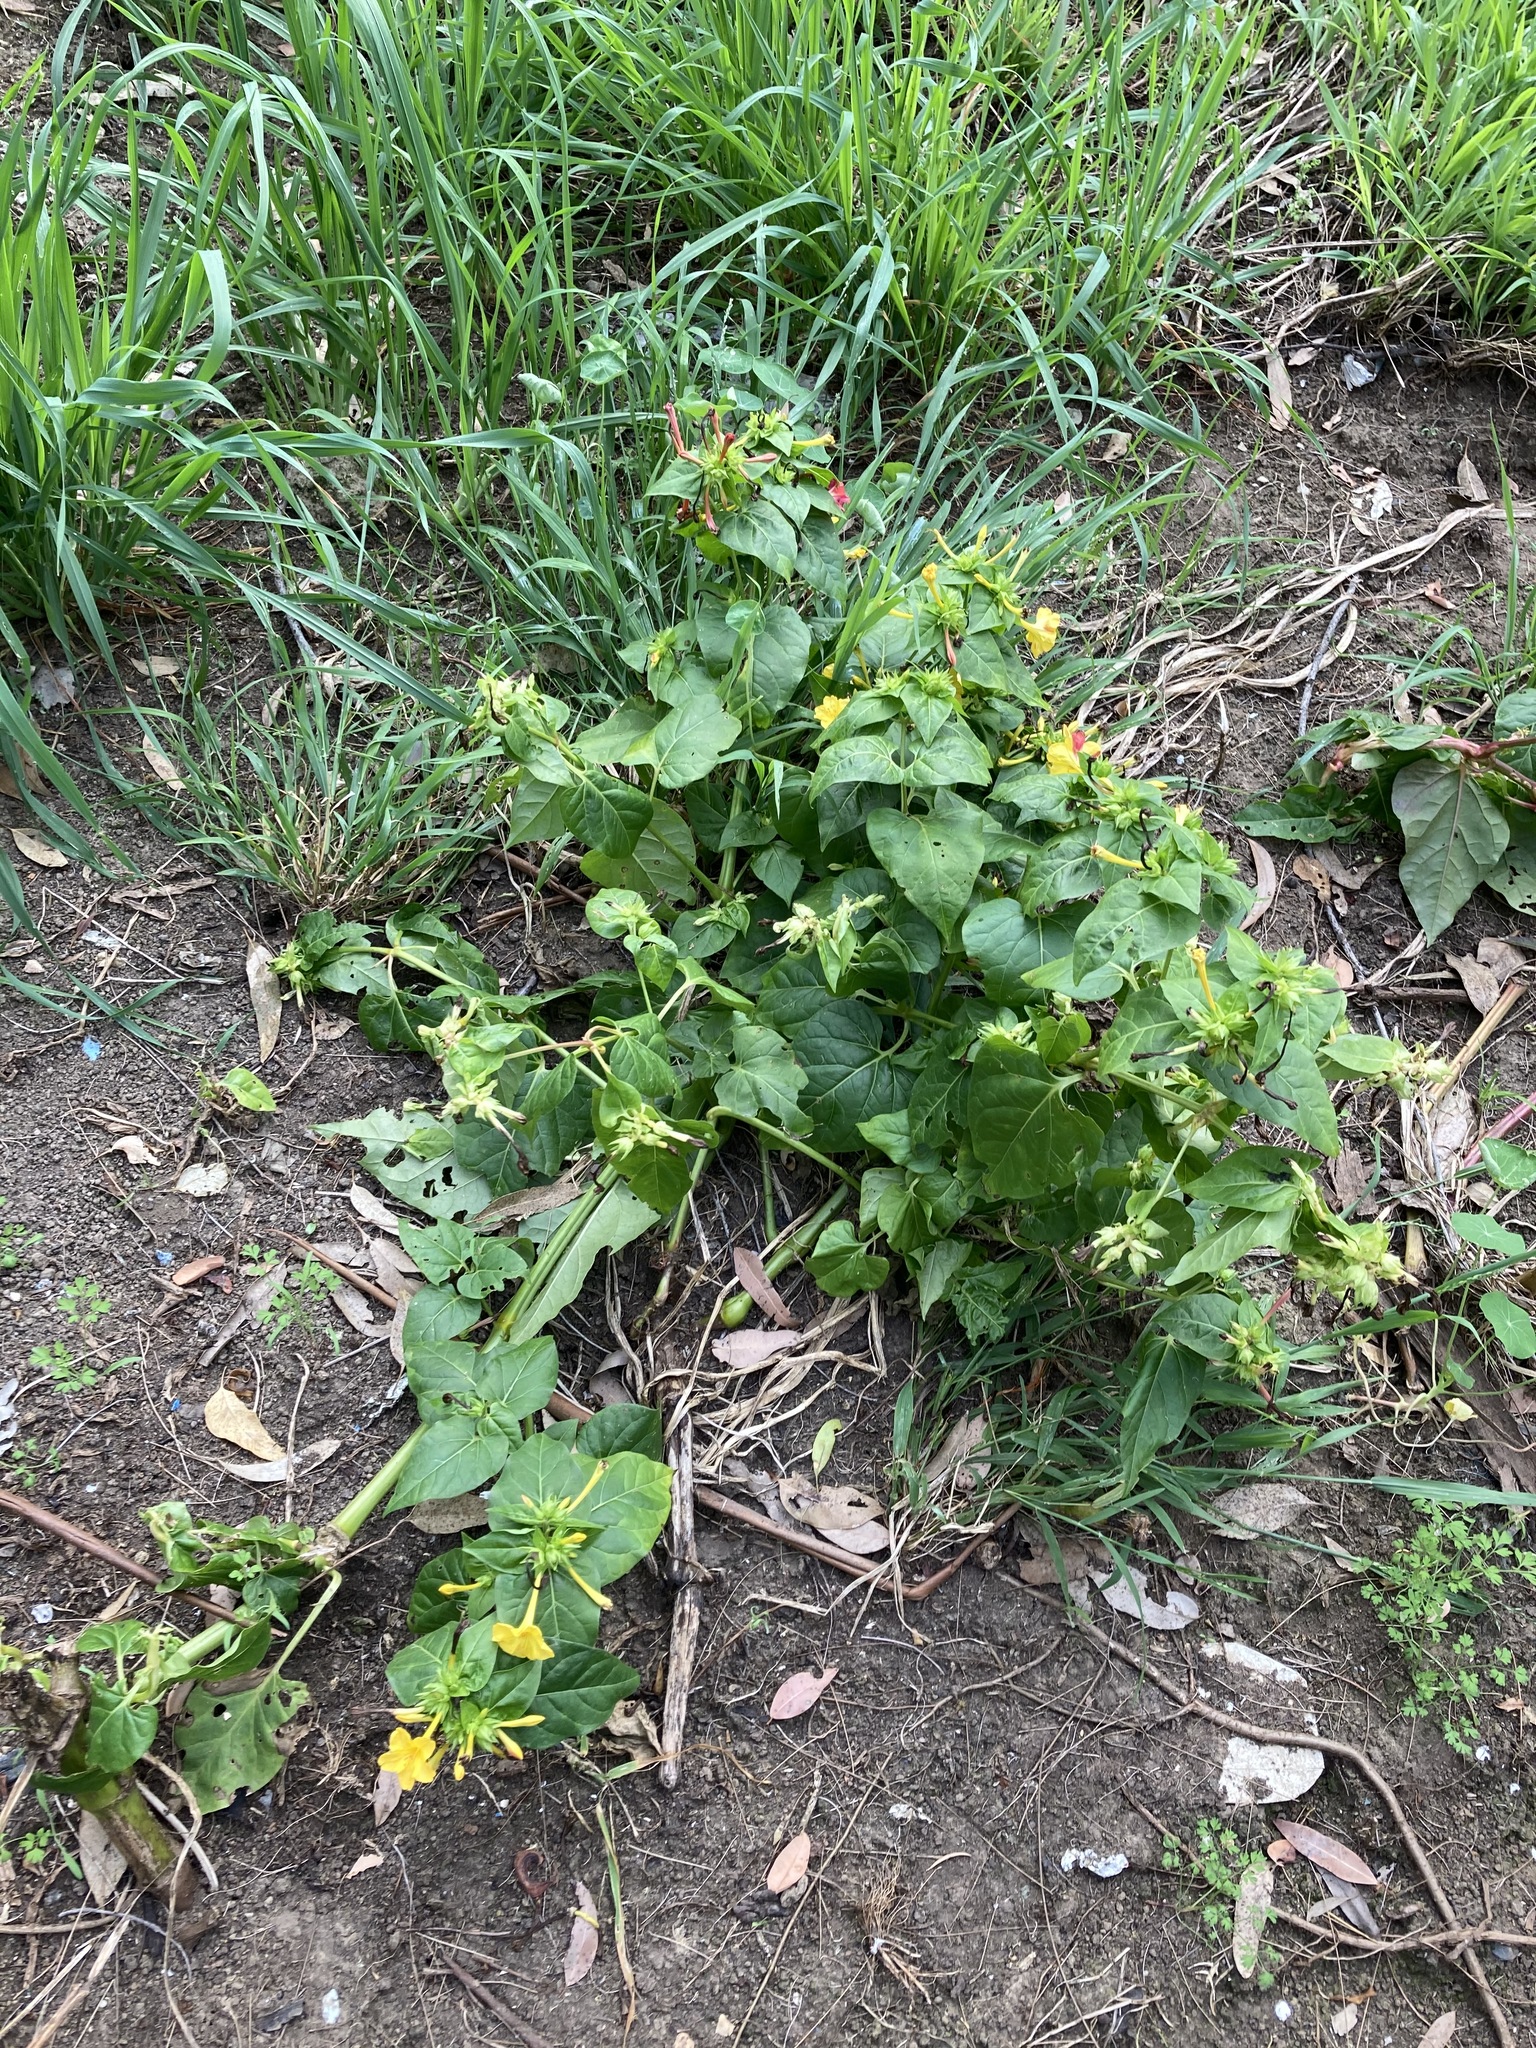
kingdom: Plantae
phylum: Tracheophyta
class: Magnoliopsida
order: Caryophyllales
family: Nyctaginaceae
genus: Mirabilis
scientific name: Mirabilis jalapa
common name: Marvel-of-peru
